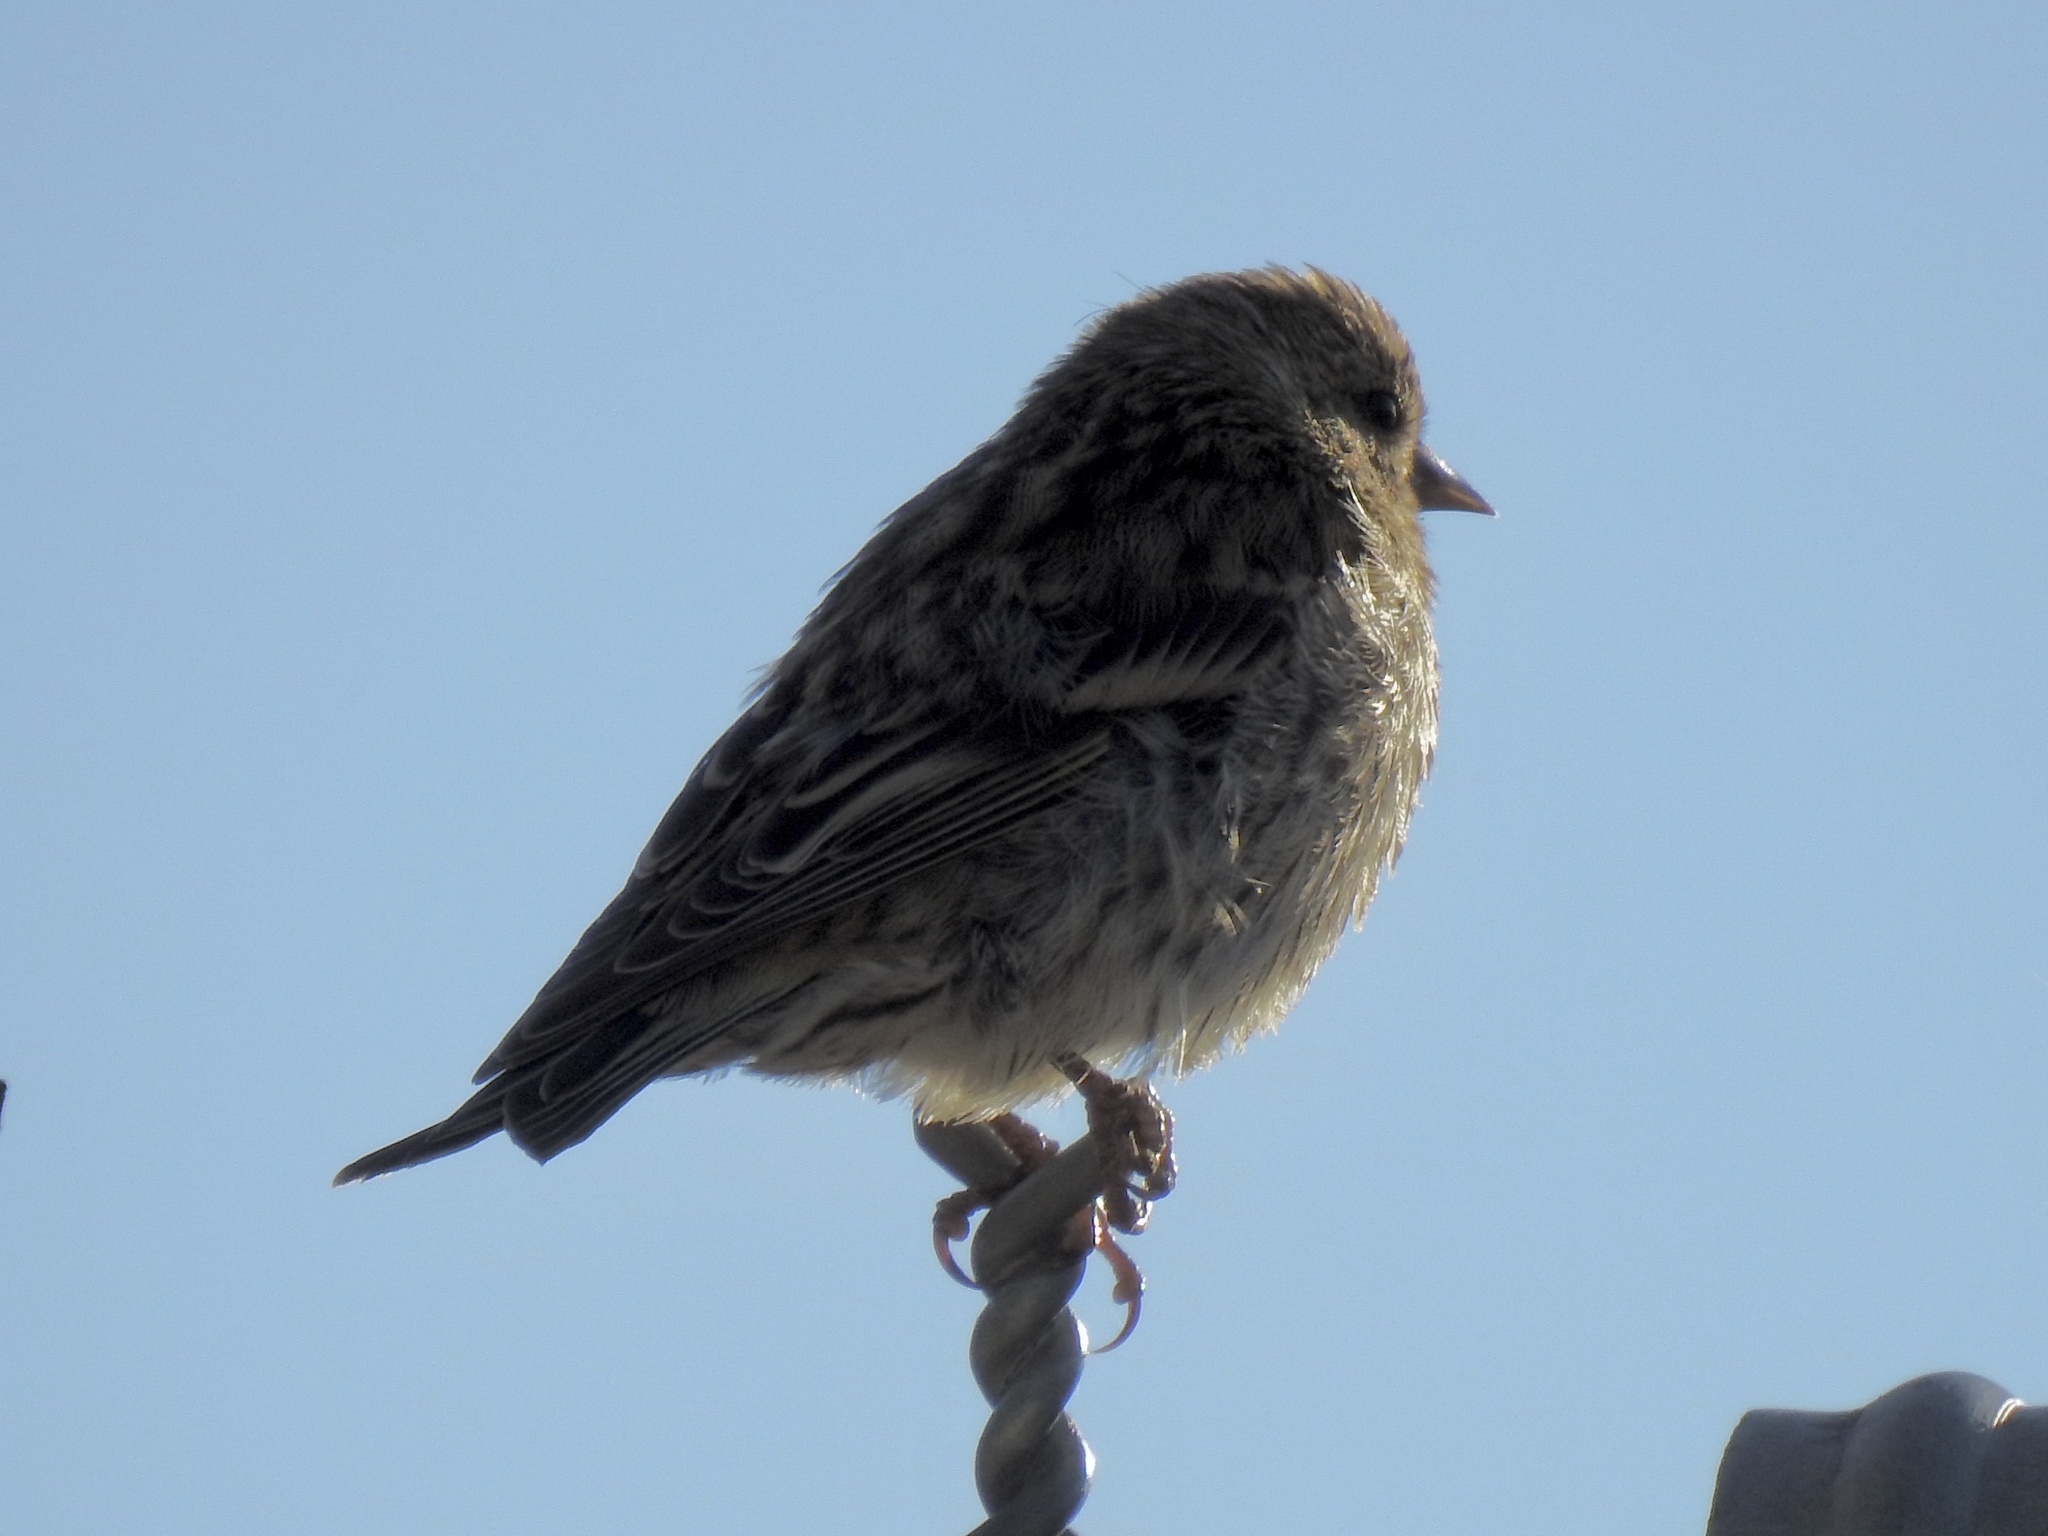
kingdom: Animalia
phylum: Chordata
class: Aves
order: Passeriformes
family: Fringillidae
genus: Spinus
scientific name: Spinus pinus
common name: Pine siskin
